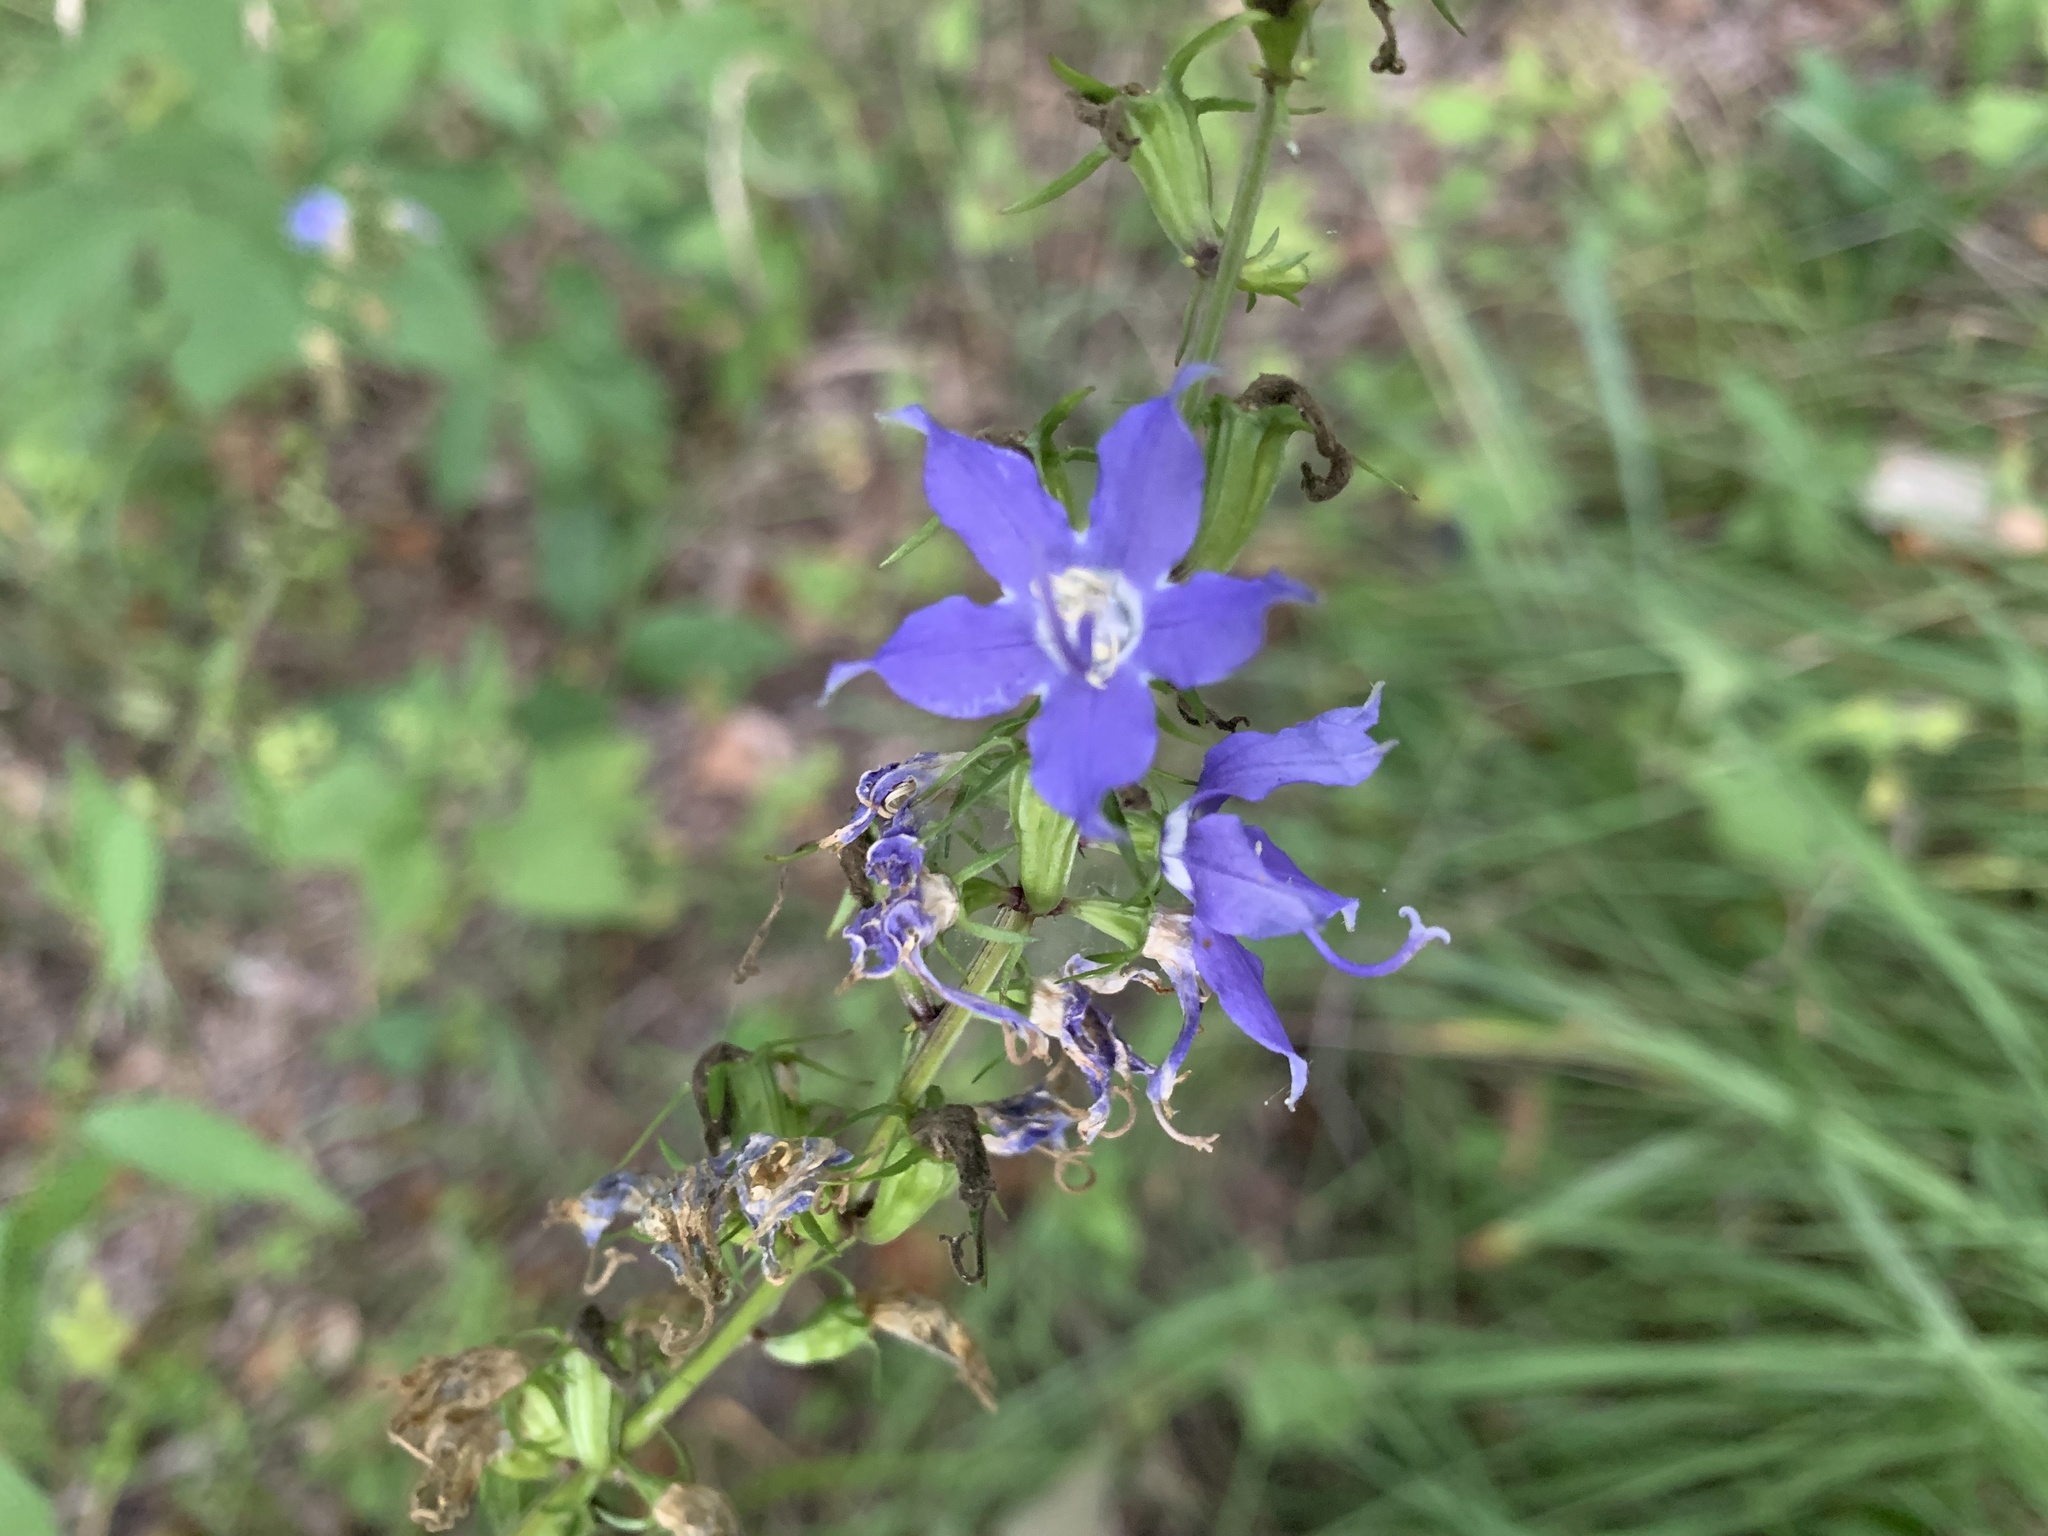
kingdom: Plantae
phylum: Tracheophyta
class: Magnoliopsida
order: Asterales
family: Campanulaceae
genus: Campanulastrum
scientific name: Campanulastrum americanum
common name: American bellflower
